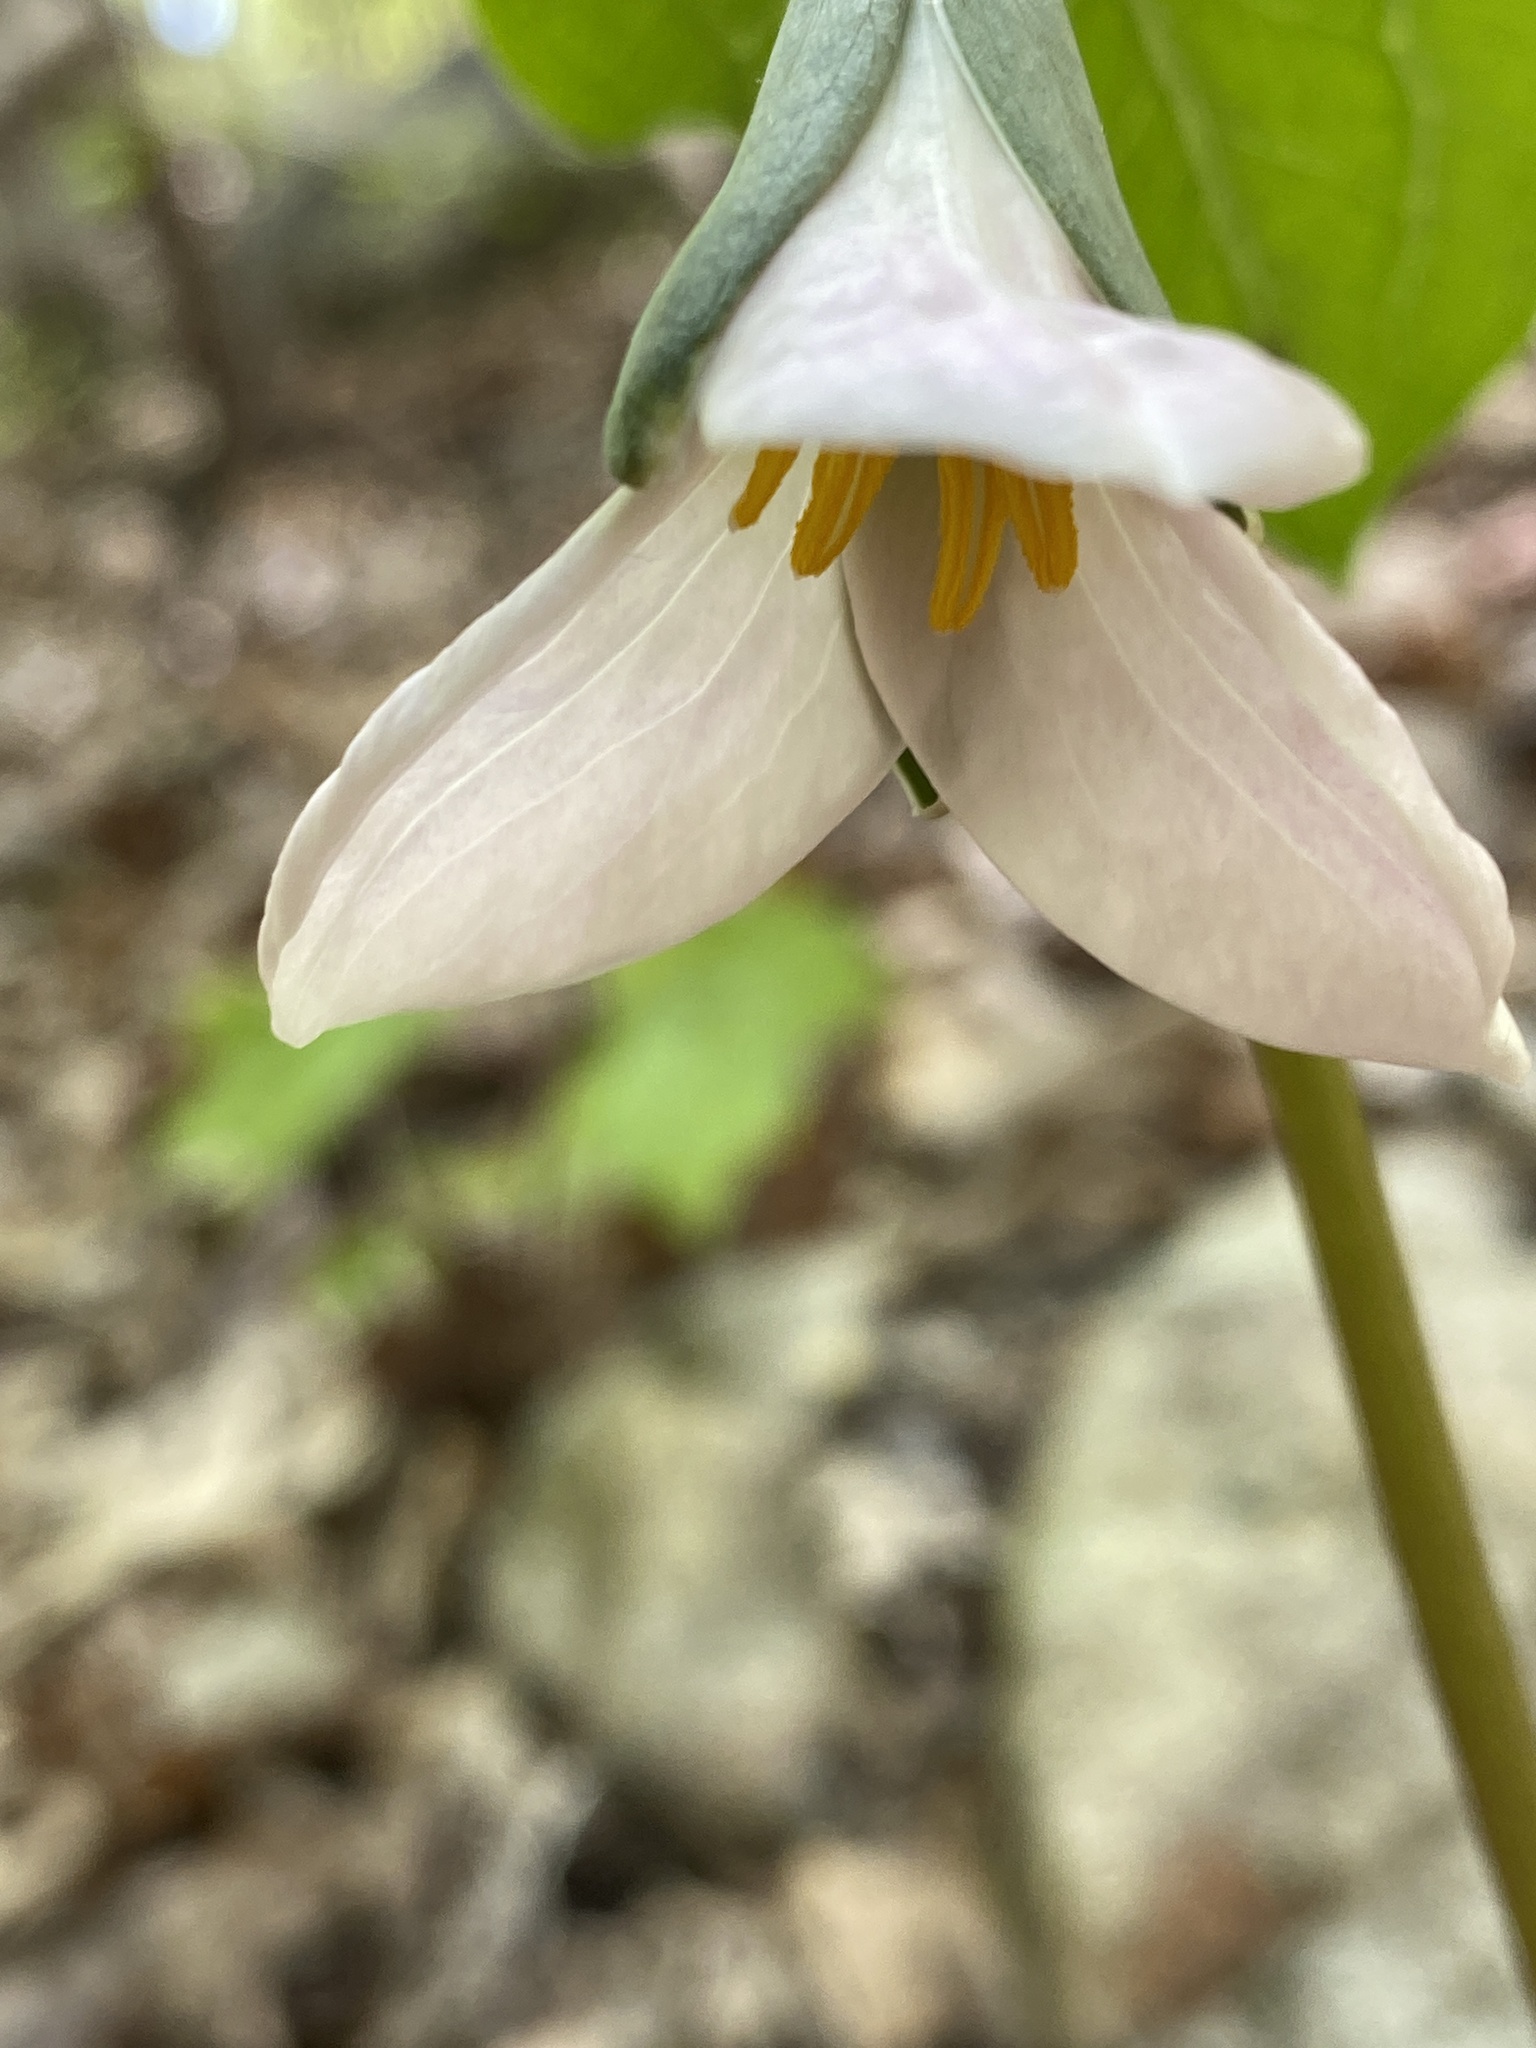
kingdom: Plantae
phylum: Tracheophyta
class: Liliopsida
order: Liliales
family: Melanthiaceae
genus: Trillium
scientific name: Trillium catesbaei
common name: Bashful trillium
